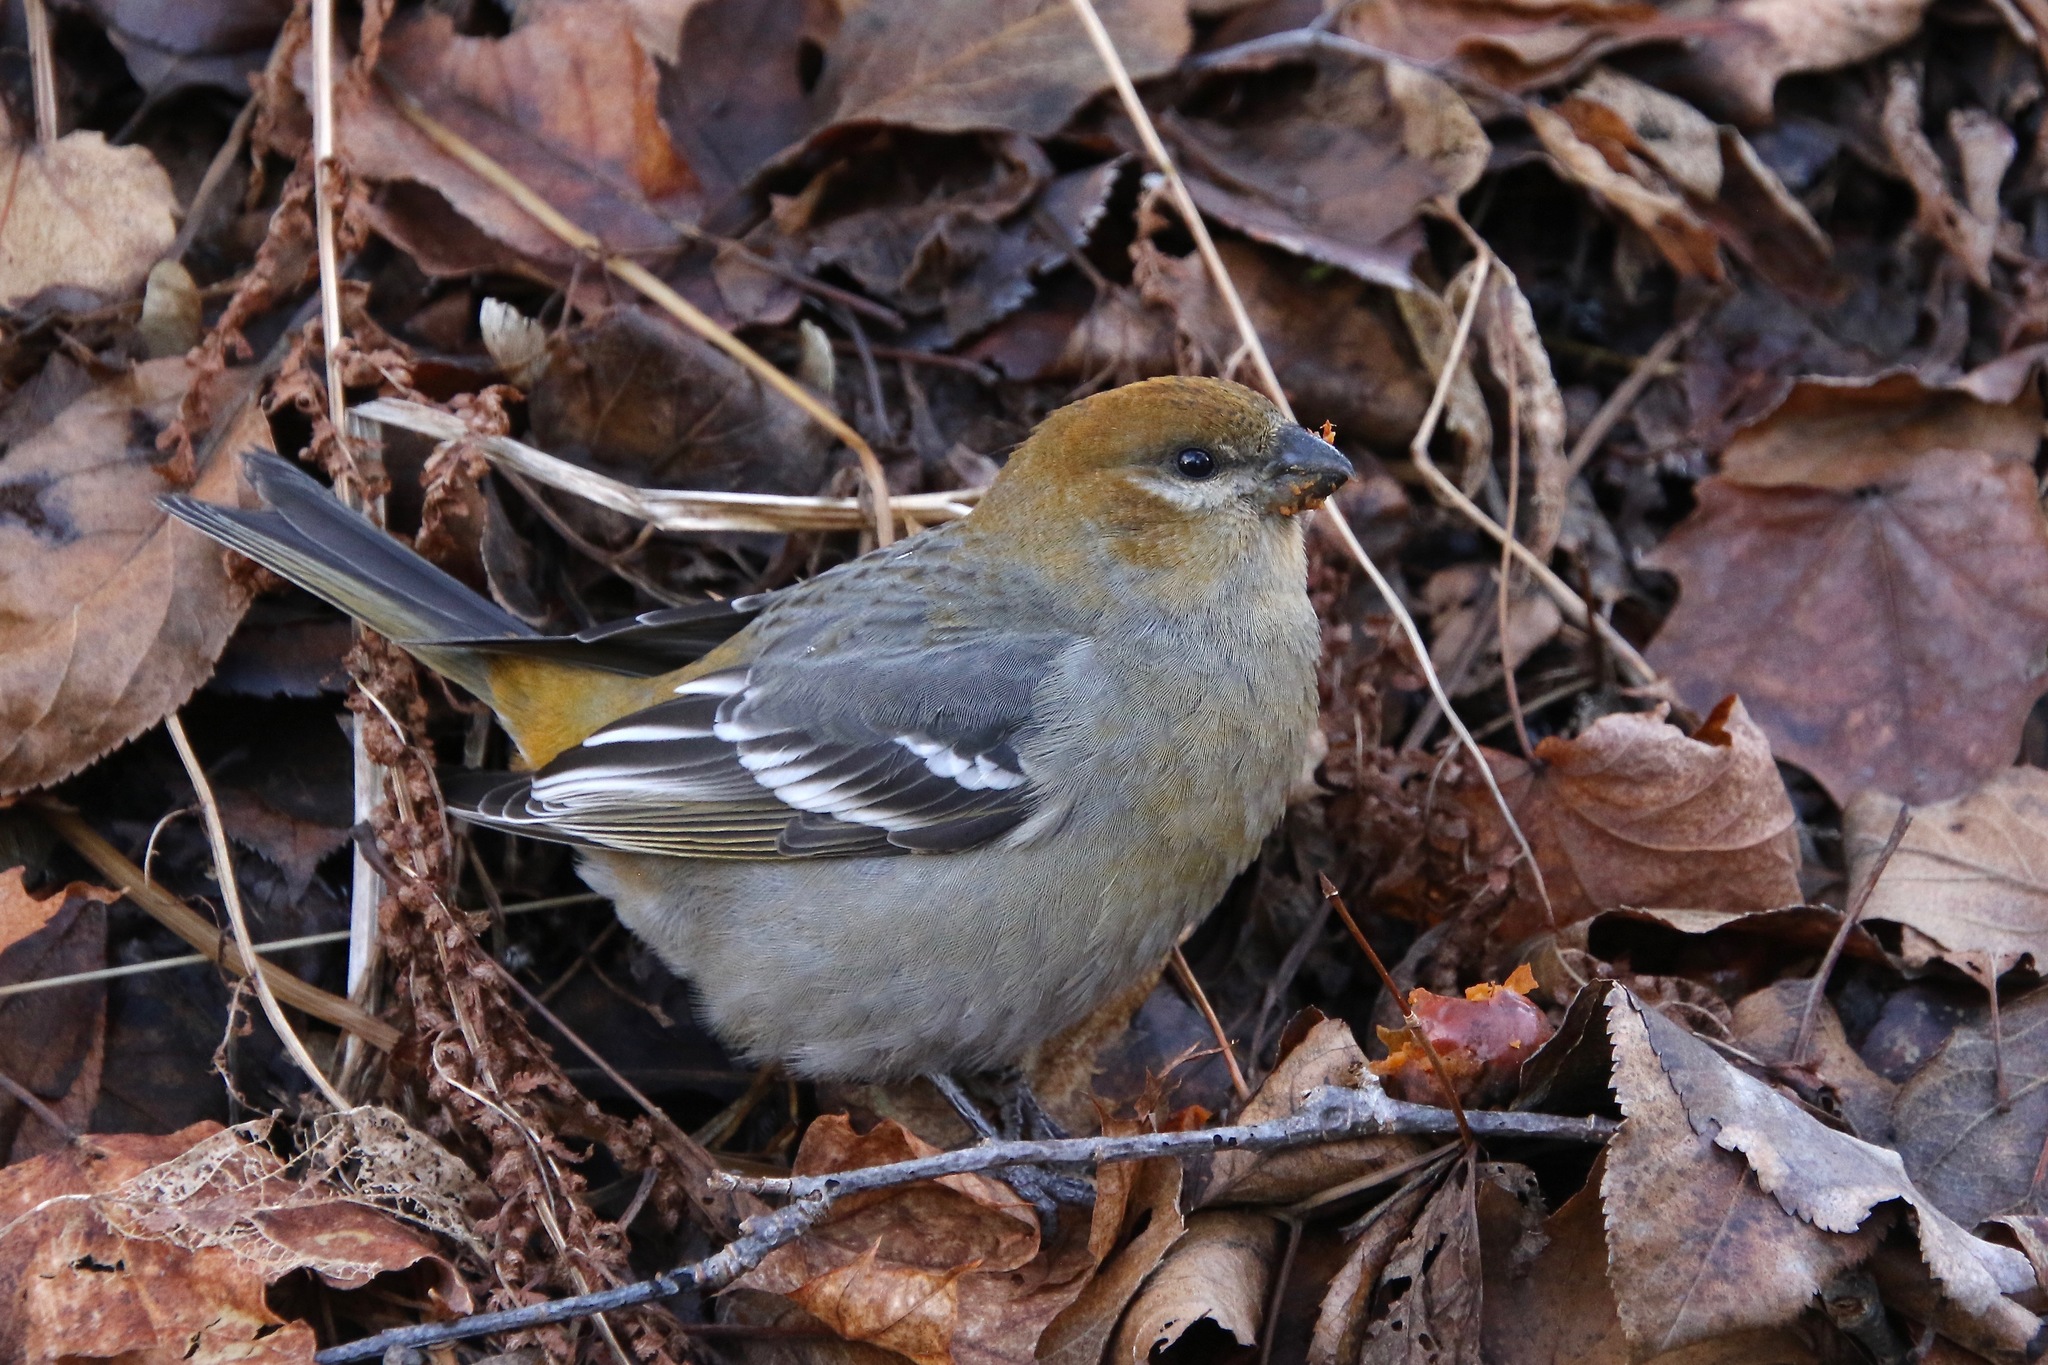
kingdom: Animalia
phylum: Chordata
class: Aves
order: Passeriformes
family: Fringillidae
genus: Pinicola
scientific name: Pinicola enucleator
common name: Pine grosbeak
